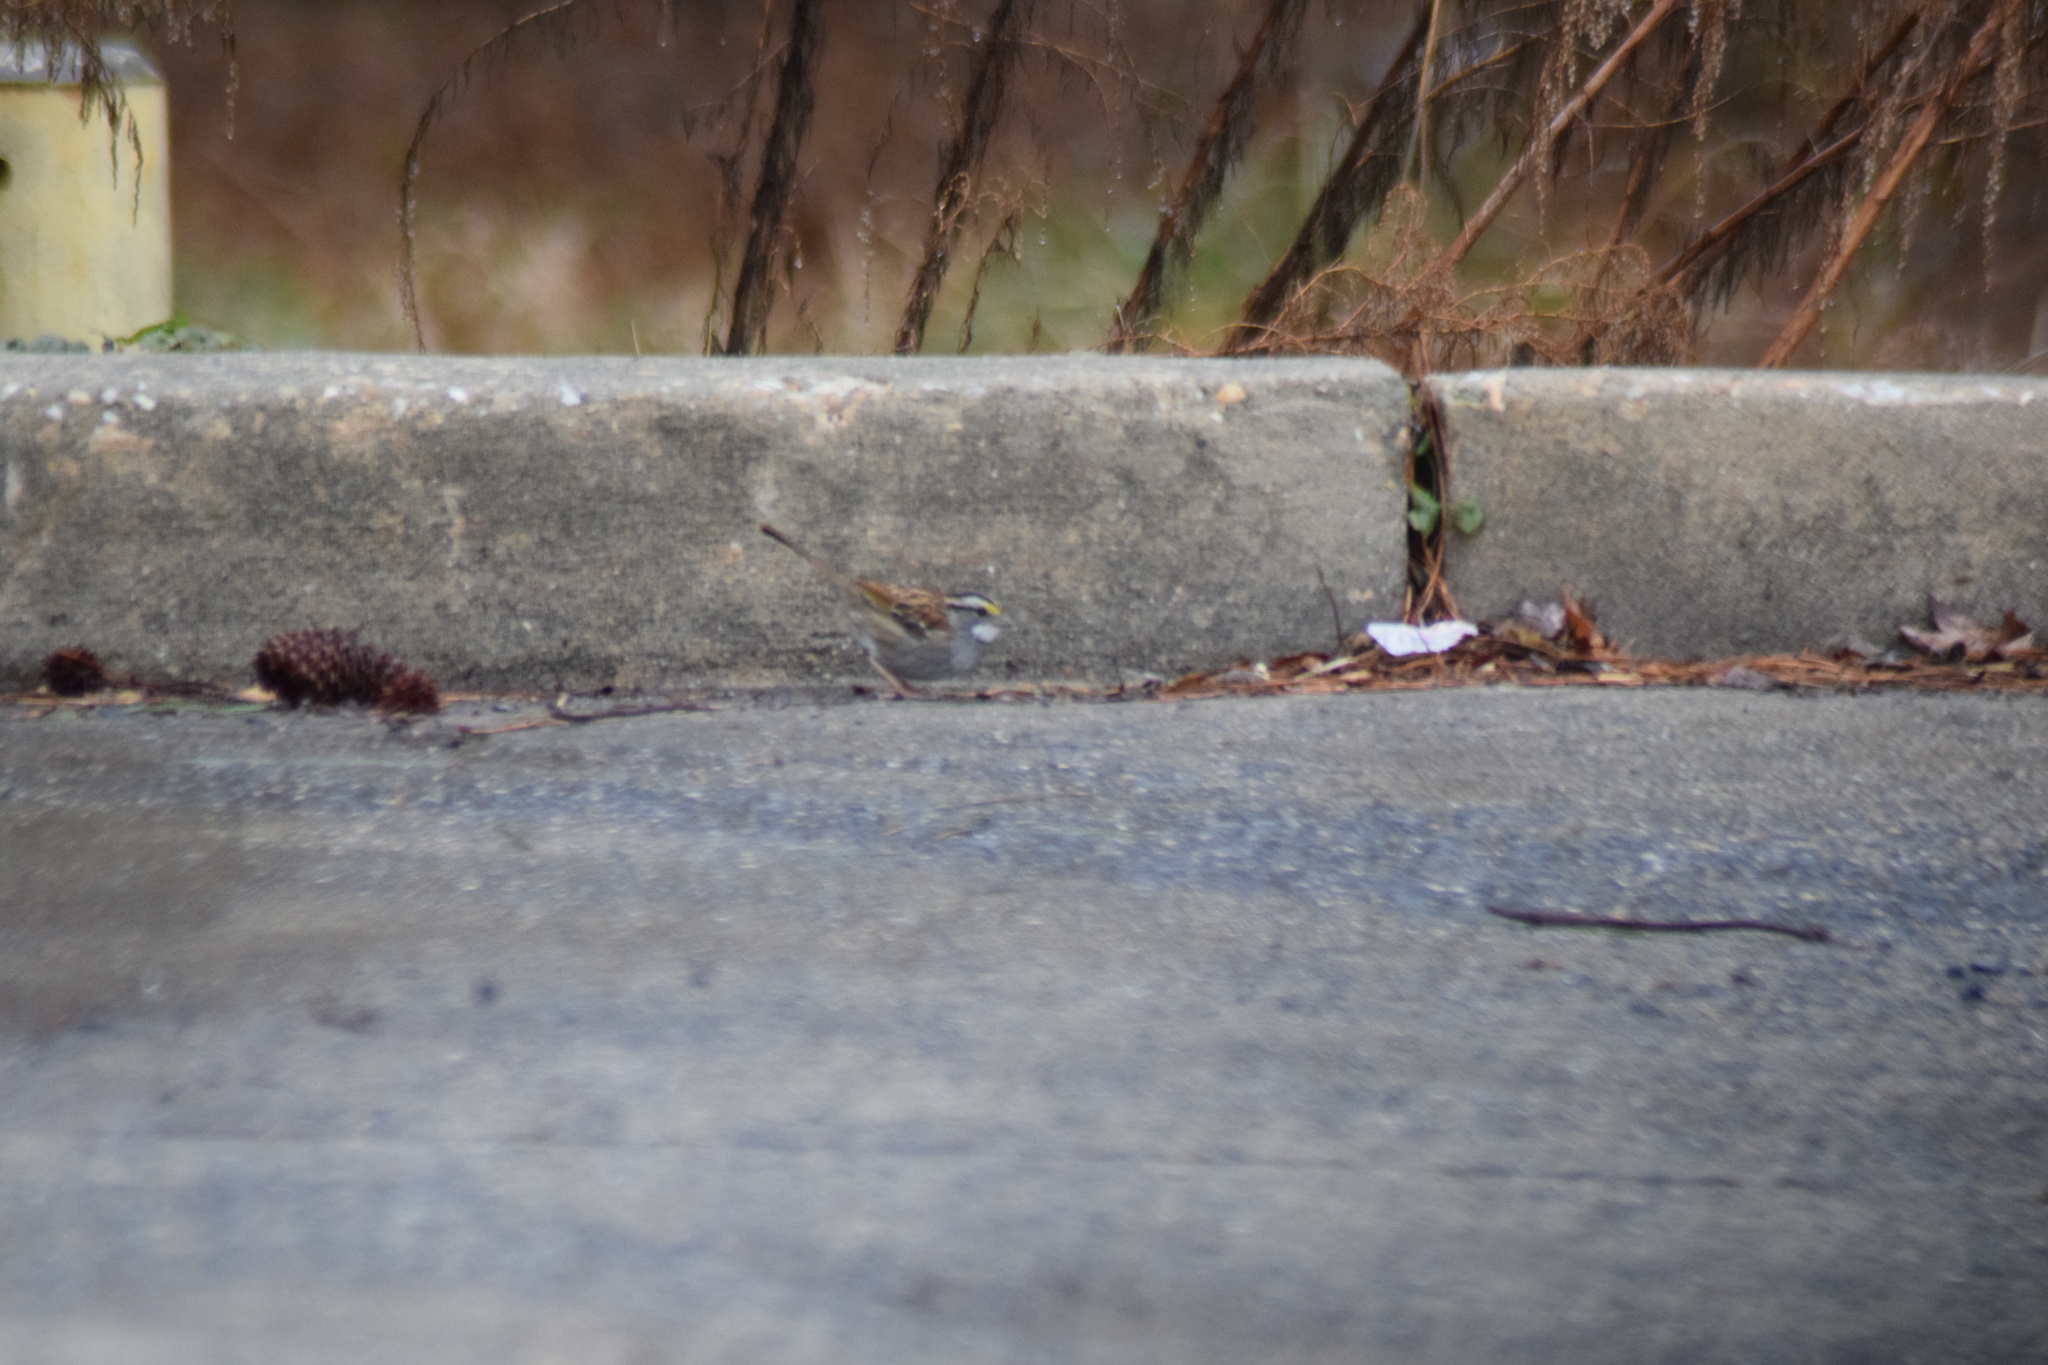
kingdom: Animalia
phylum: Chordata
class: Aves
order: Passeriformes
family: Passerellidae
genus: Zonotrichia
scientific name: Zonotrichia albicollis
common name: White-throated sparrow
